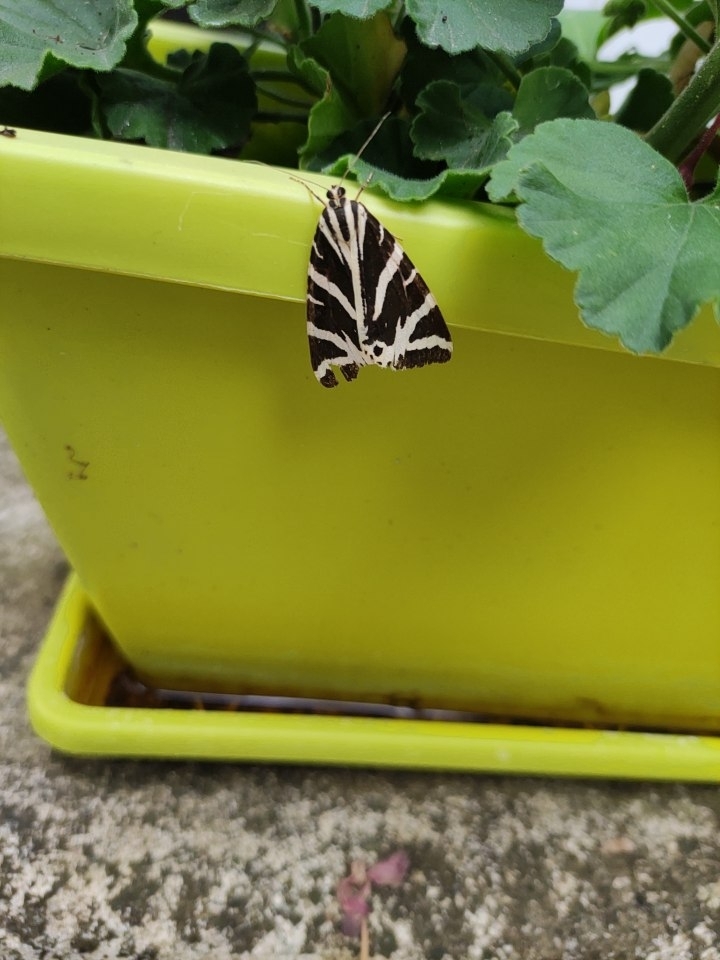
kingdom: Animalia
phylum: Arthropoda
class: Insecta
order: Lepidoptera
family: Erebidae
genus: Euplagia
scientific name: Euplagia quadripunctaria
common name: Jersey tiger
